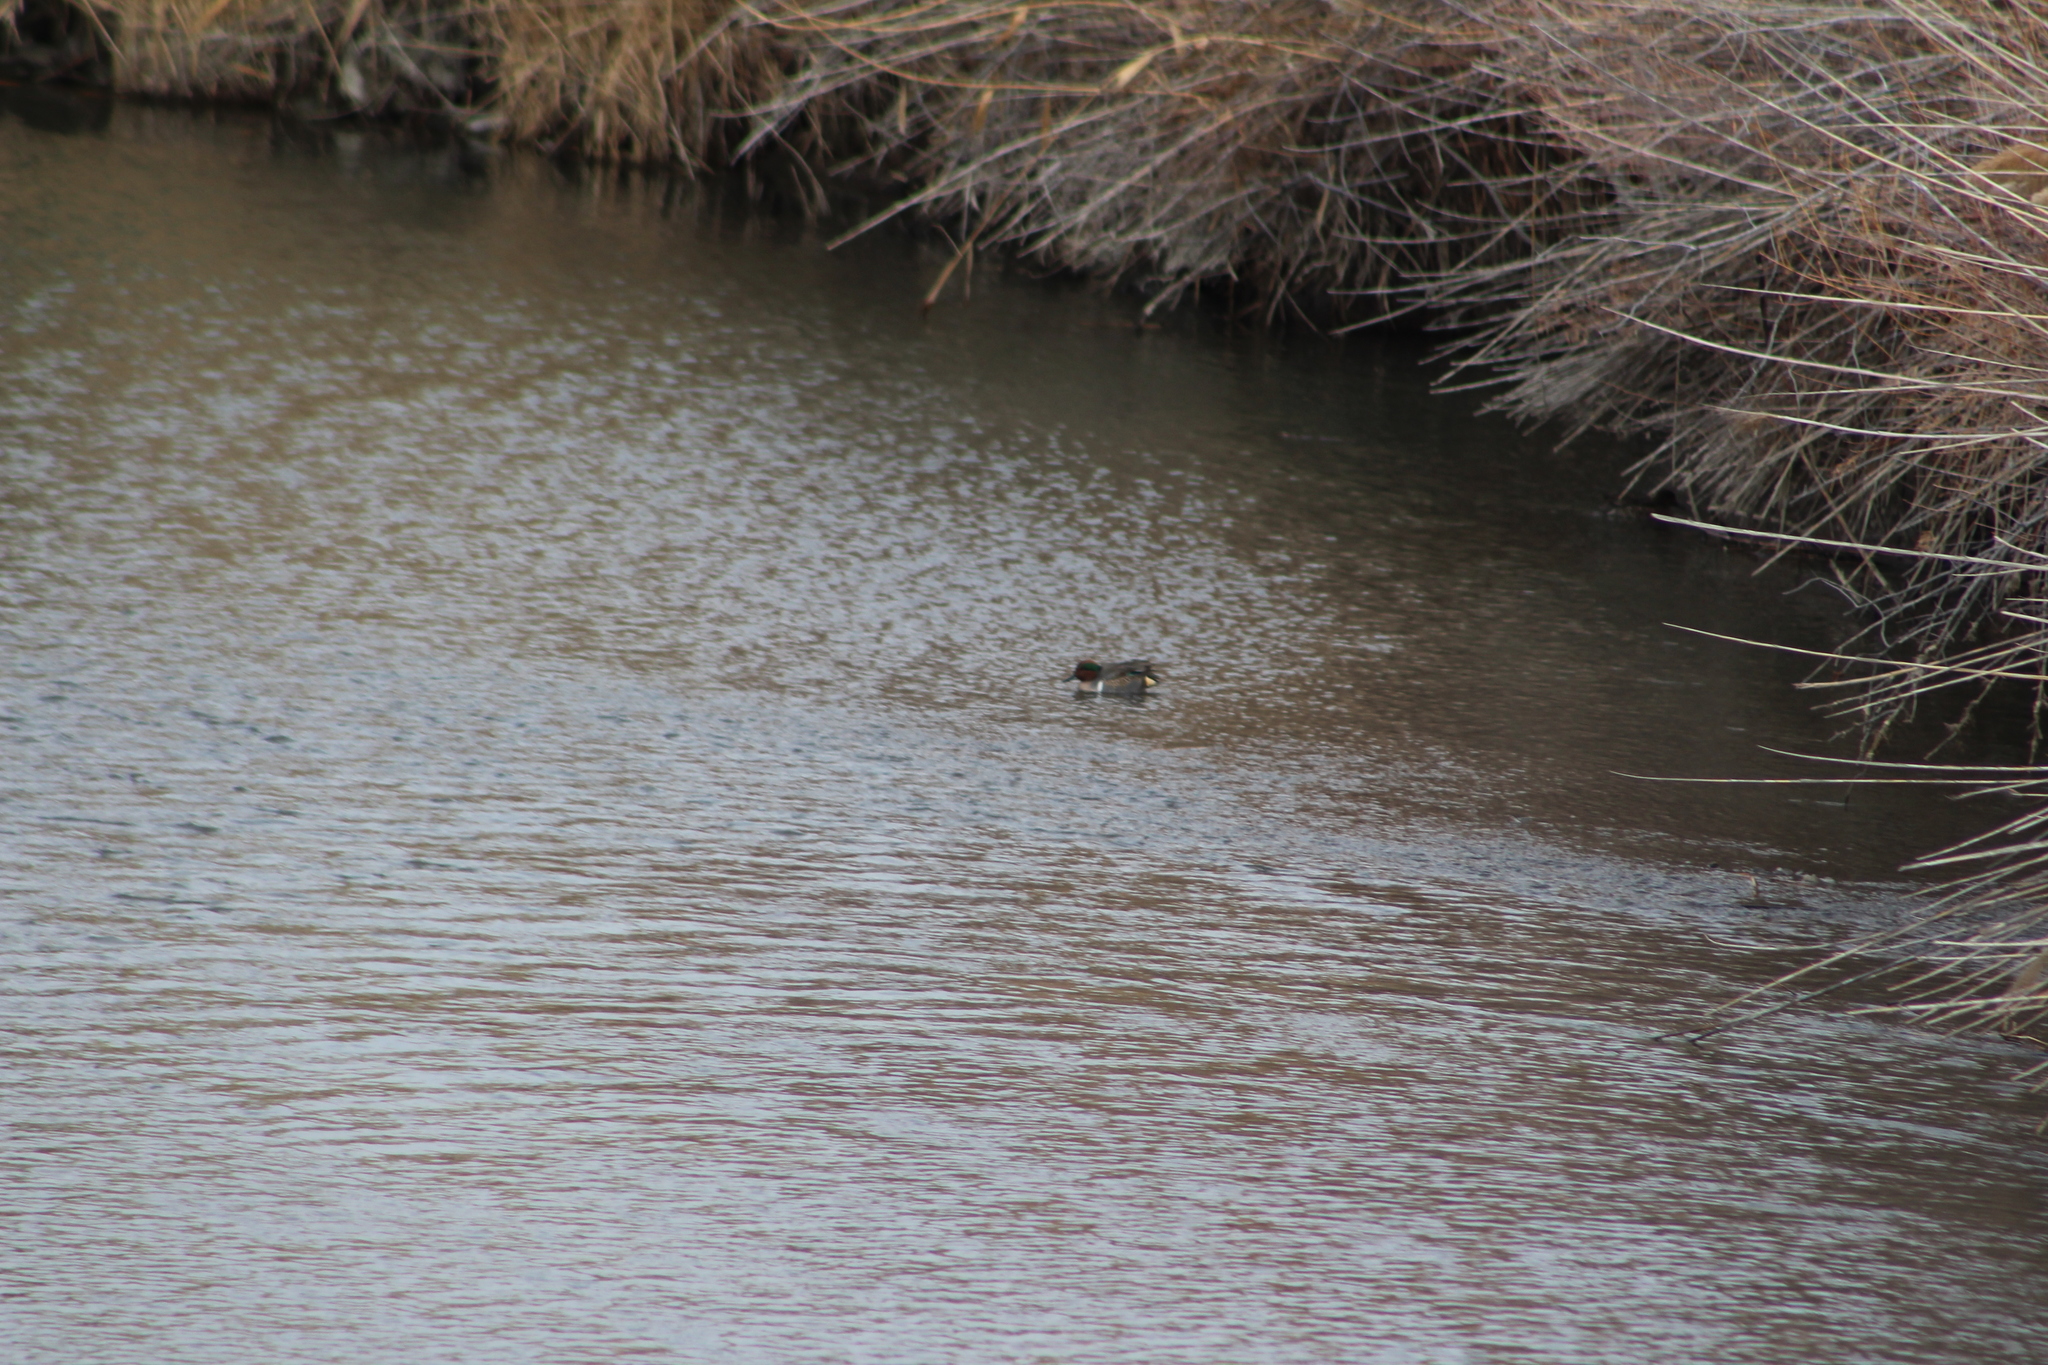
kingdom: Animalia
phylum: Chordata
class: Aves
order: Anseriformes
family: Anatidae
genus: Anas
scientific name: Anas crecca
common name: Eurasian teal
